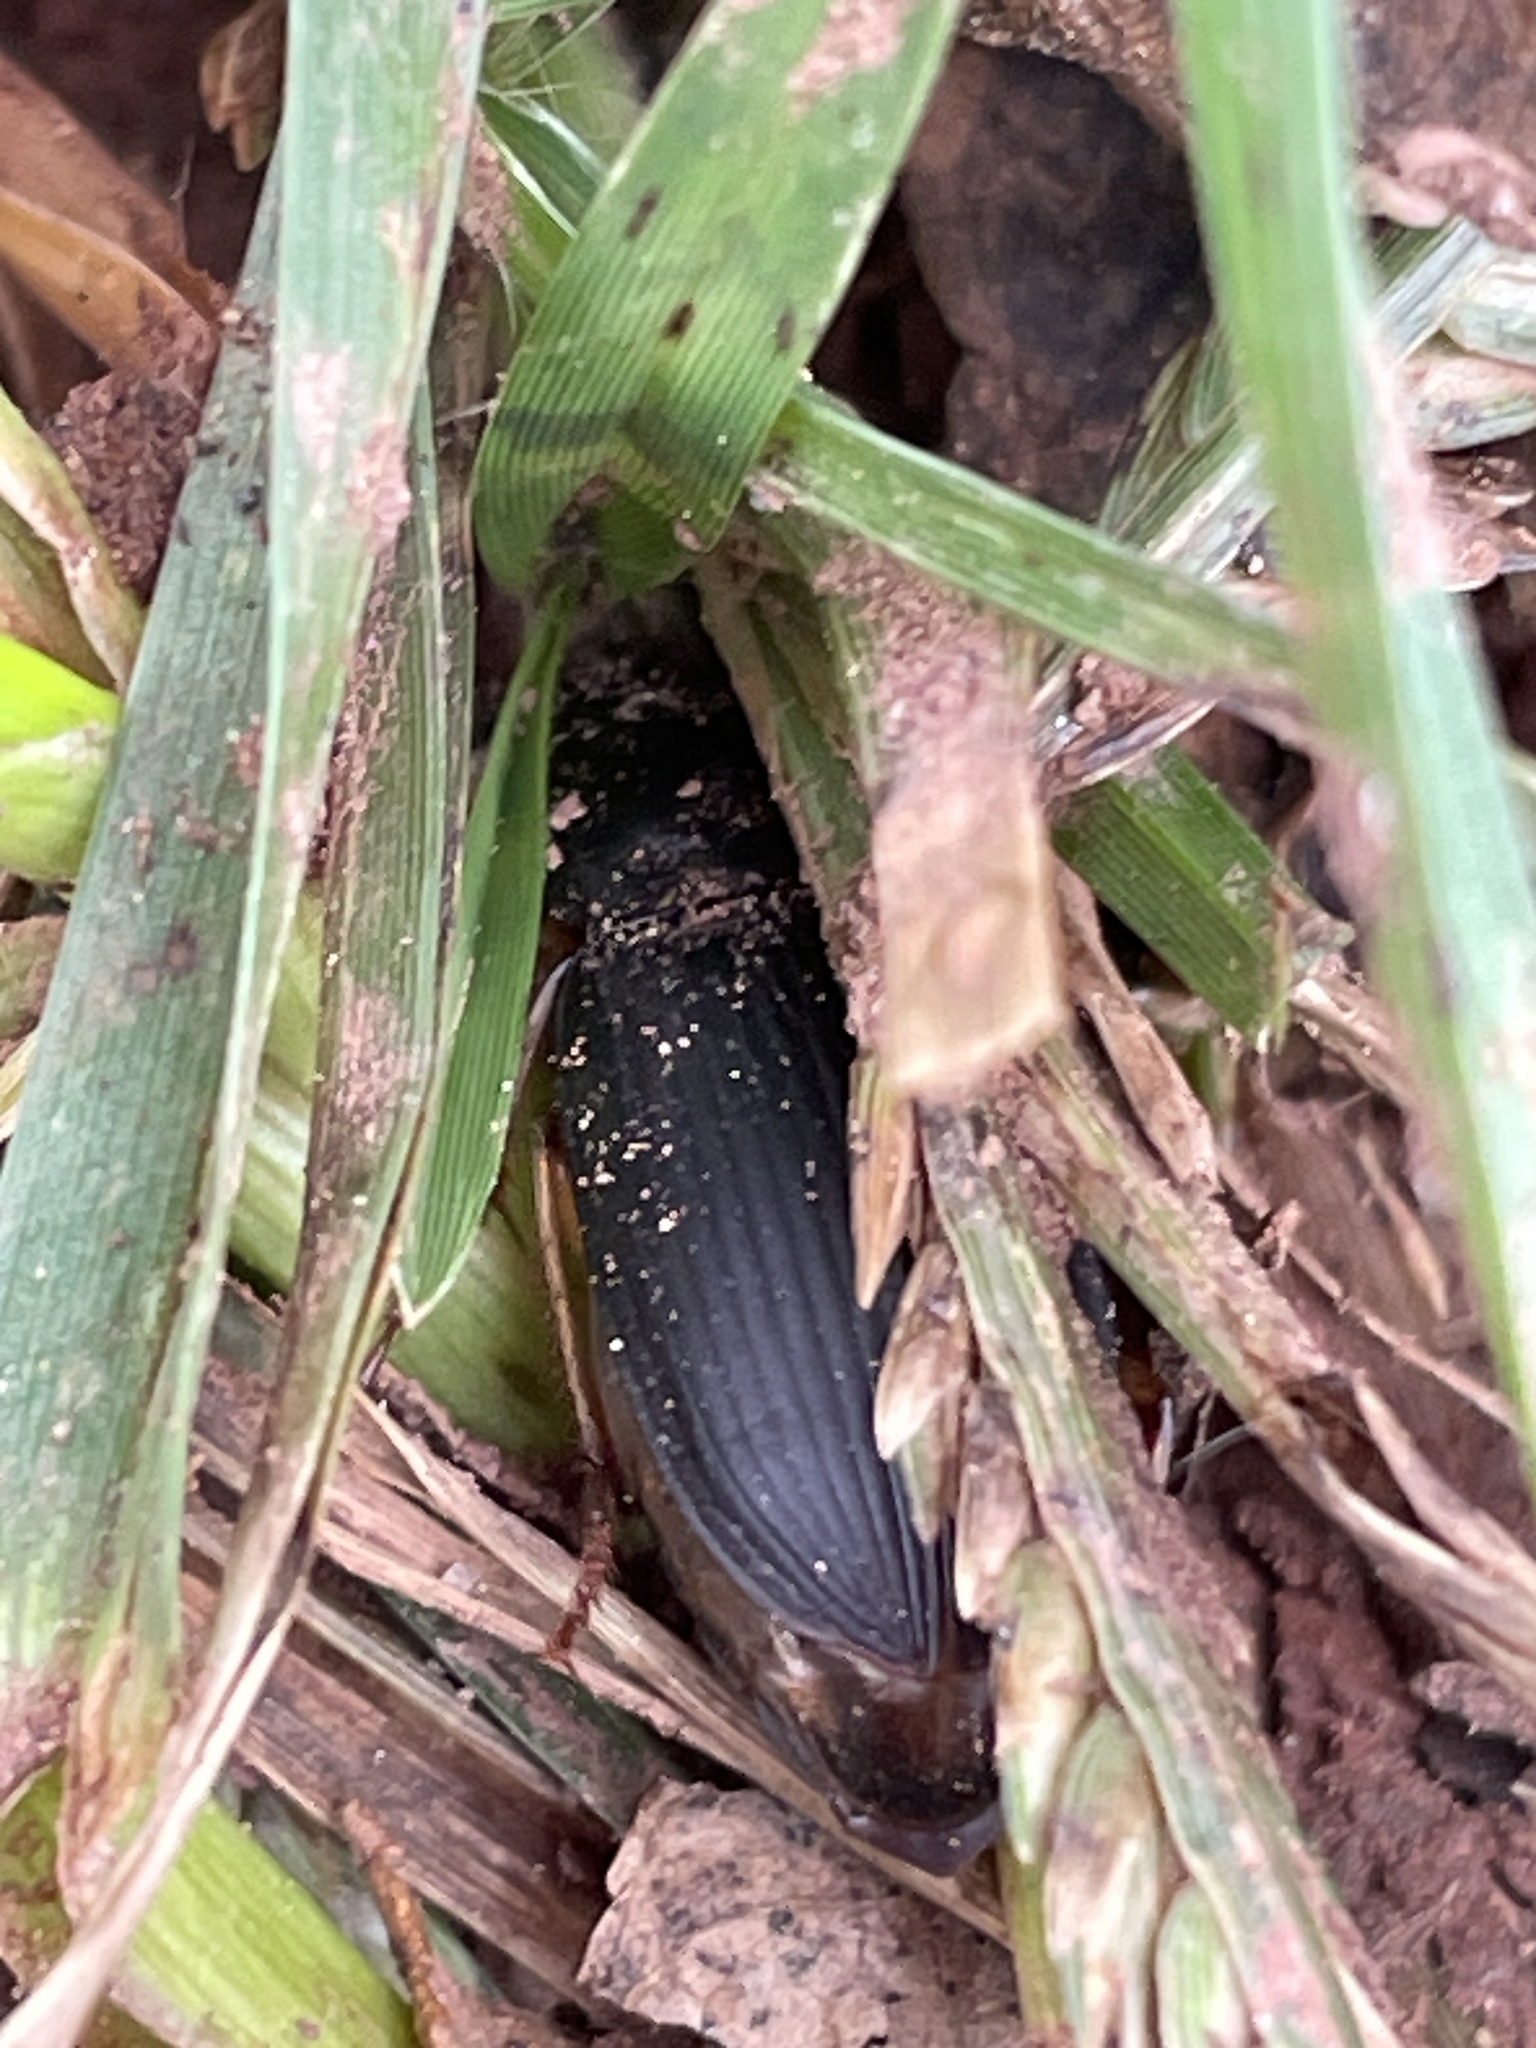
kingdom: Animalia
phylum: Arthropoda
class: Insecta
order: Coleoptera
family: Carabidae
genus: Harpalus
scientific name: Harpalus pensylvanicus
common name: Pennsylvania dingy ground beetle
